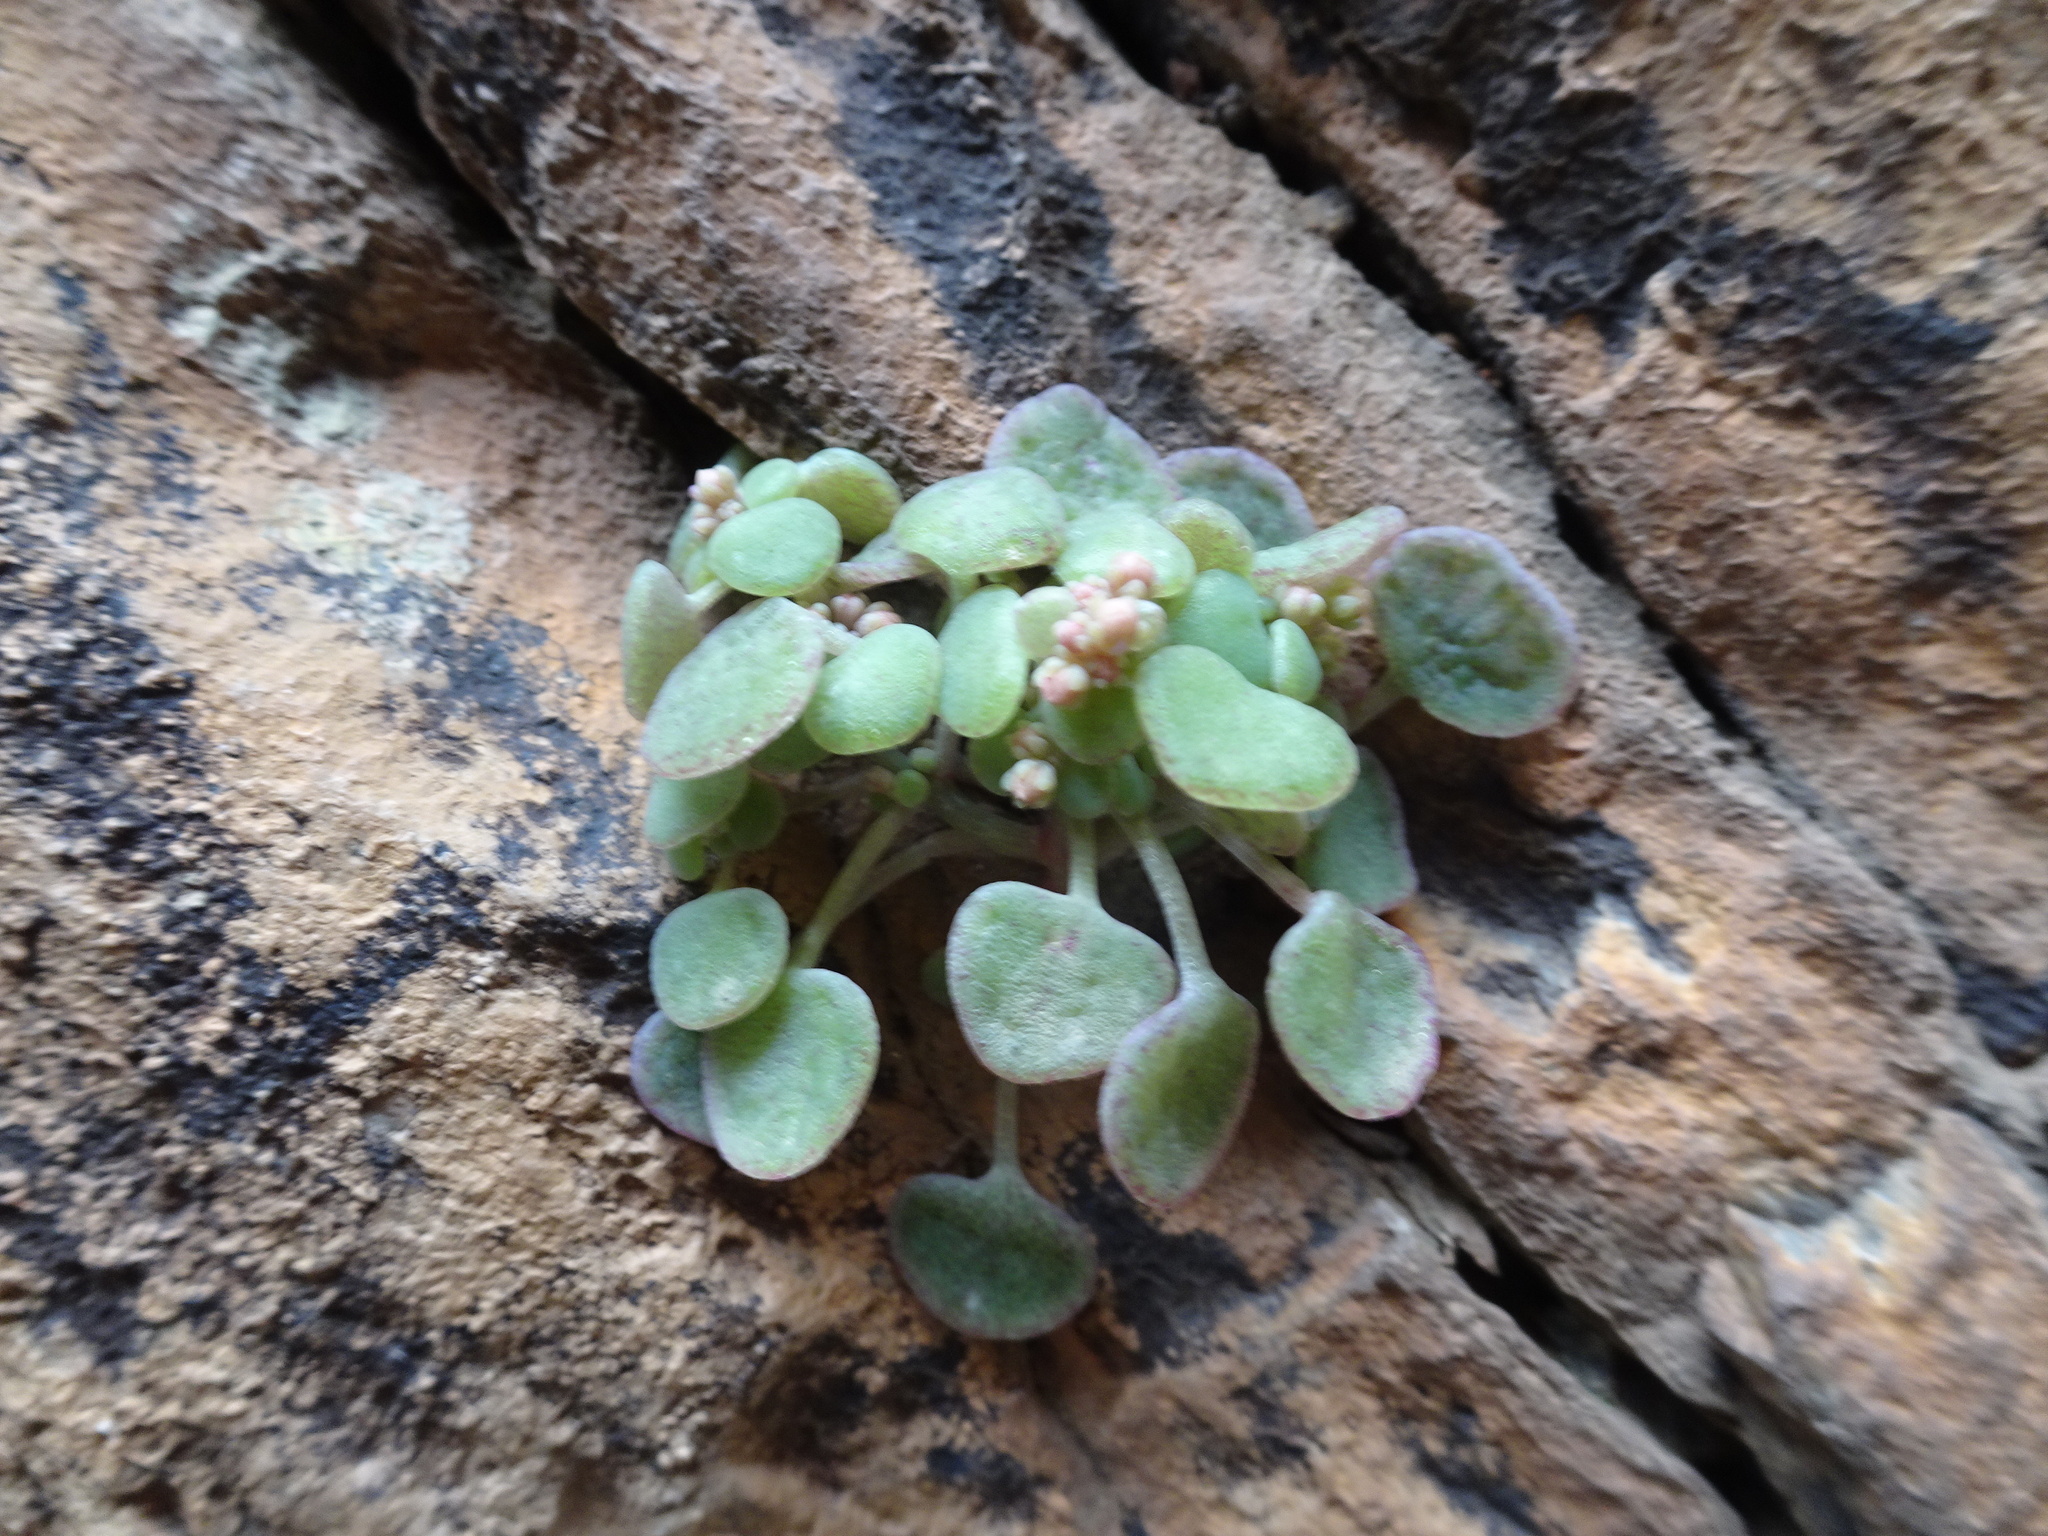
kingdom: Plantae
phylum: Tracheophyta
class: Magnoliopsida
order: Saxifragales
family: Crassulaceae
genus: Crassula
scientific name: Crassula nemorosa
